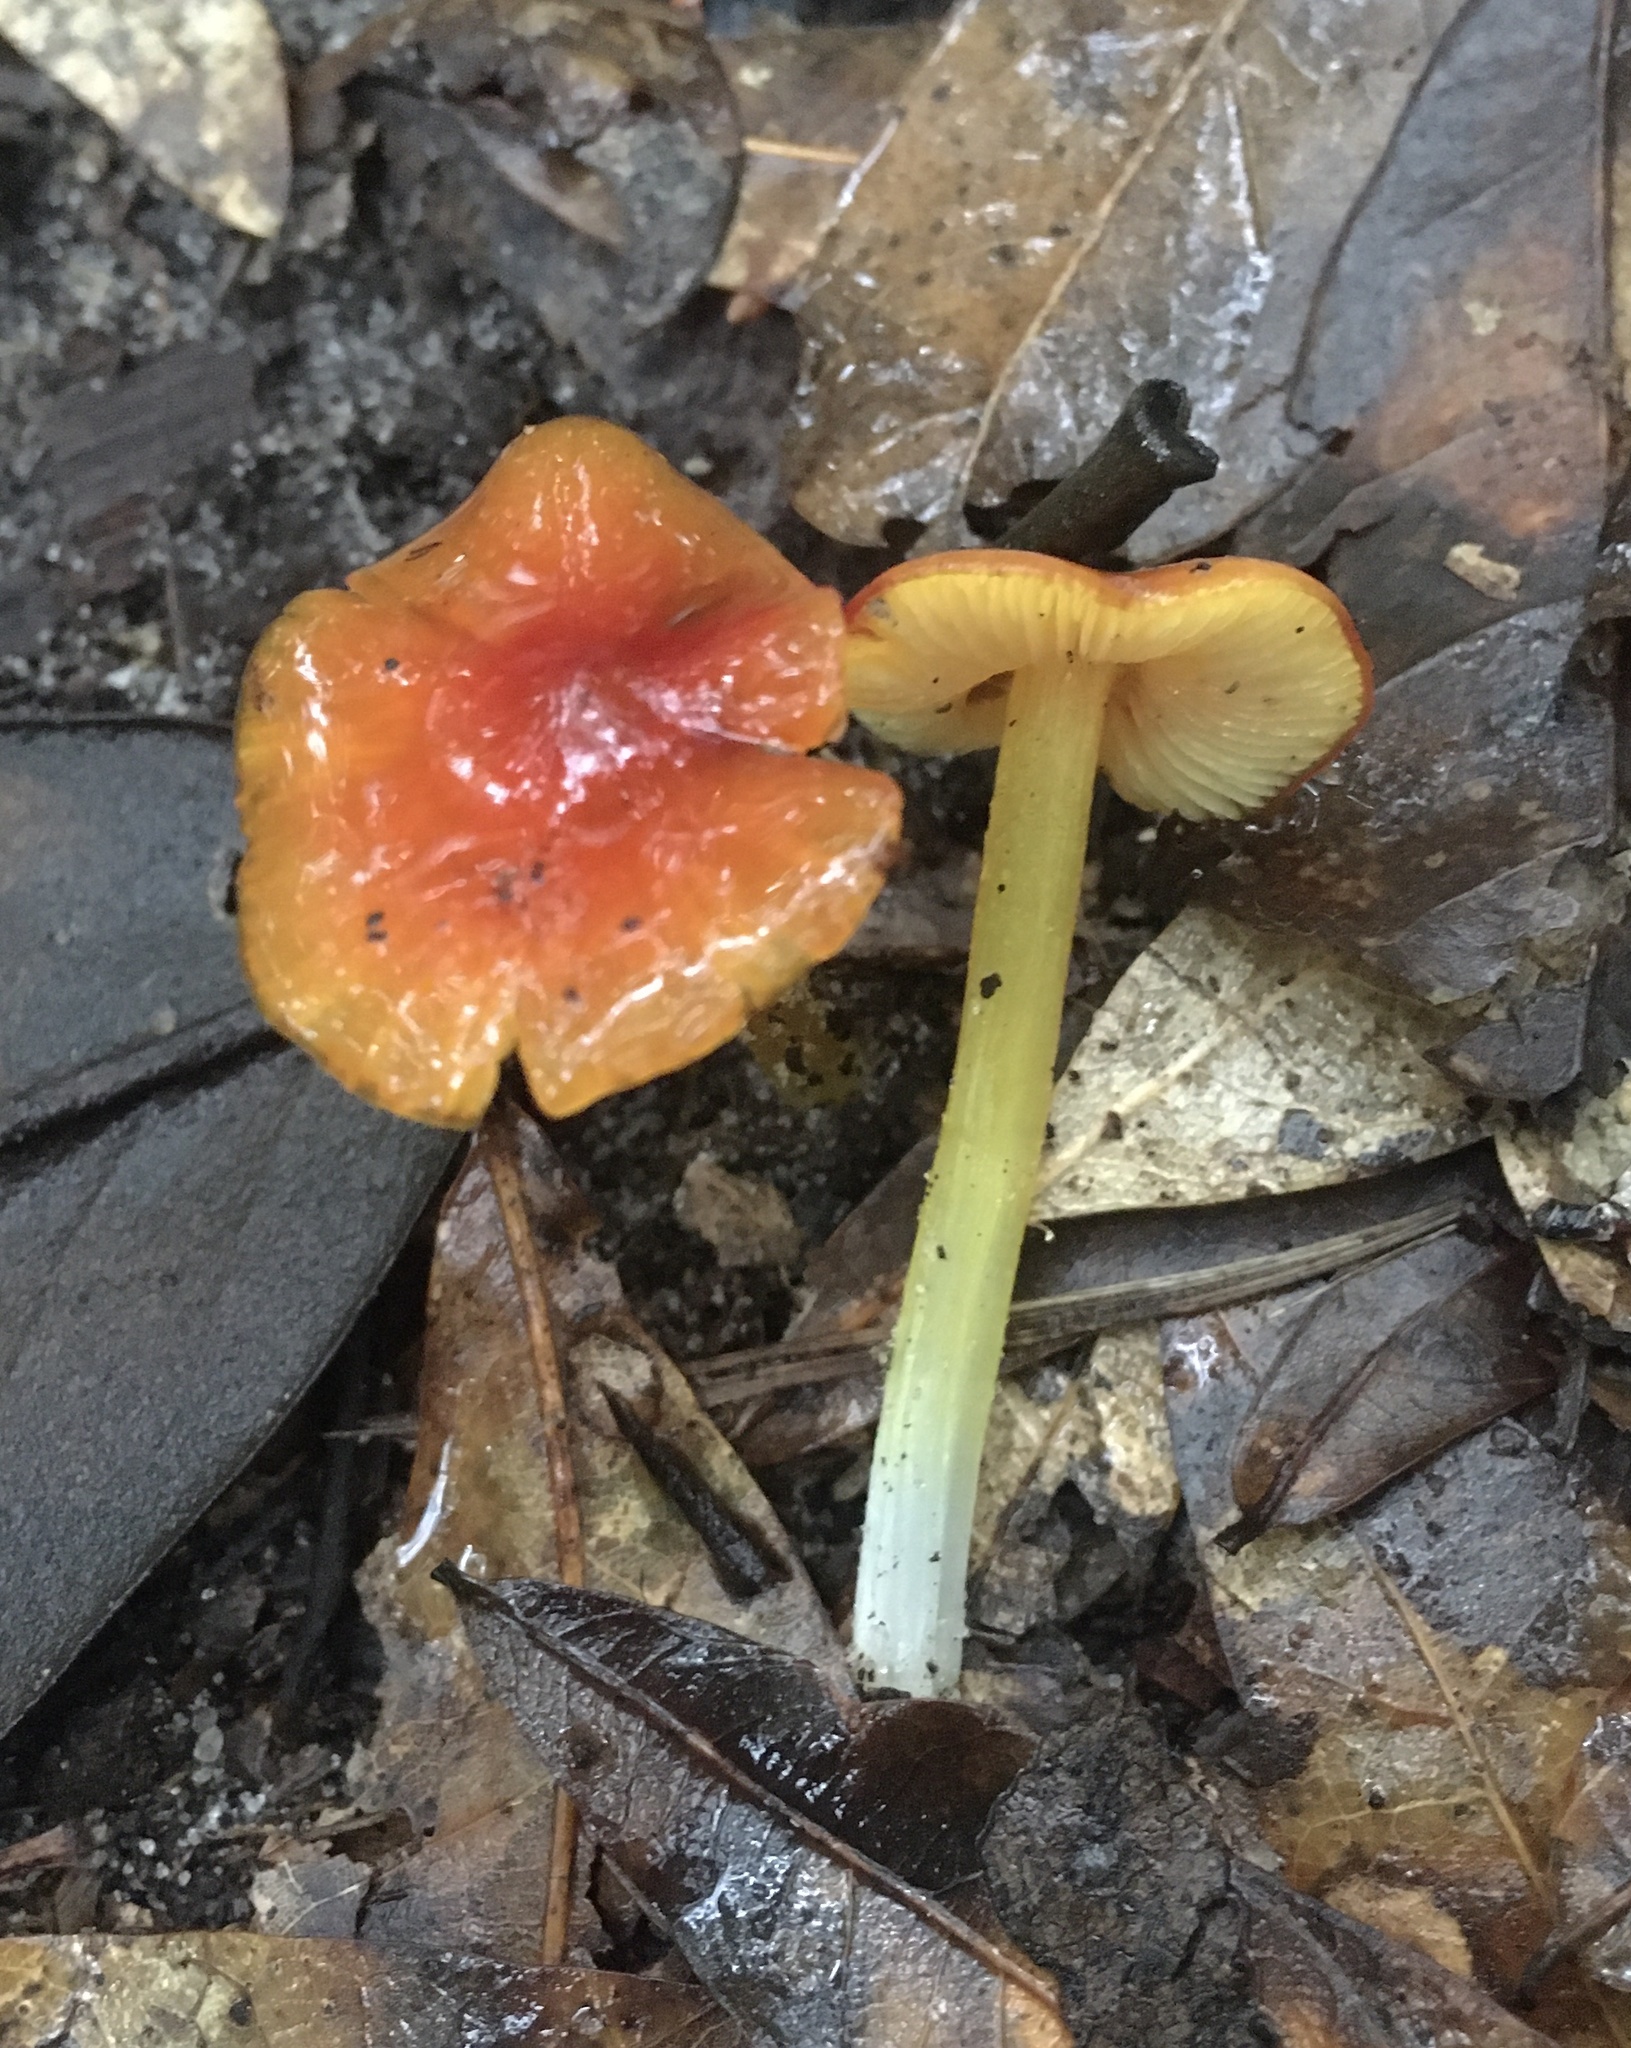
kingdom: Fungi
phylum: Basidiomycota
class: Agaricomycetes
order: Agaricales
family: Hygrophoraceae
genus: Hygrocybe
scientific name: Hygrocybe coccinea
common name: Scarlet hood
